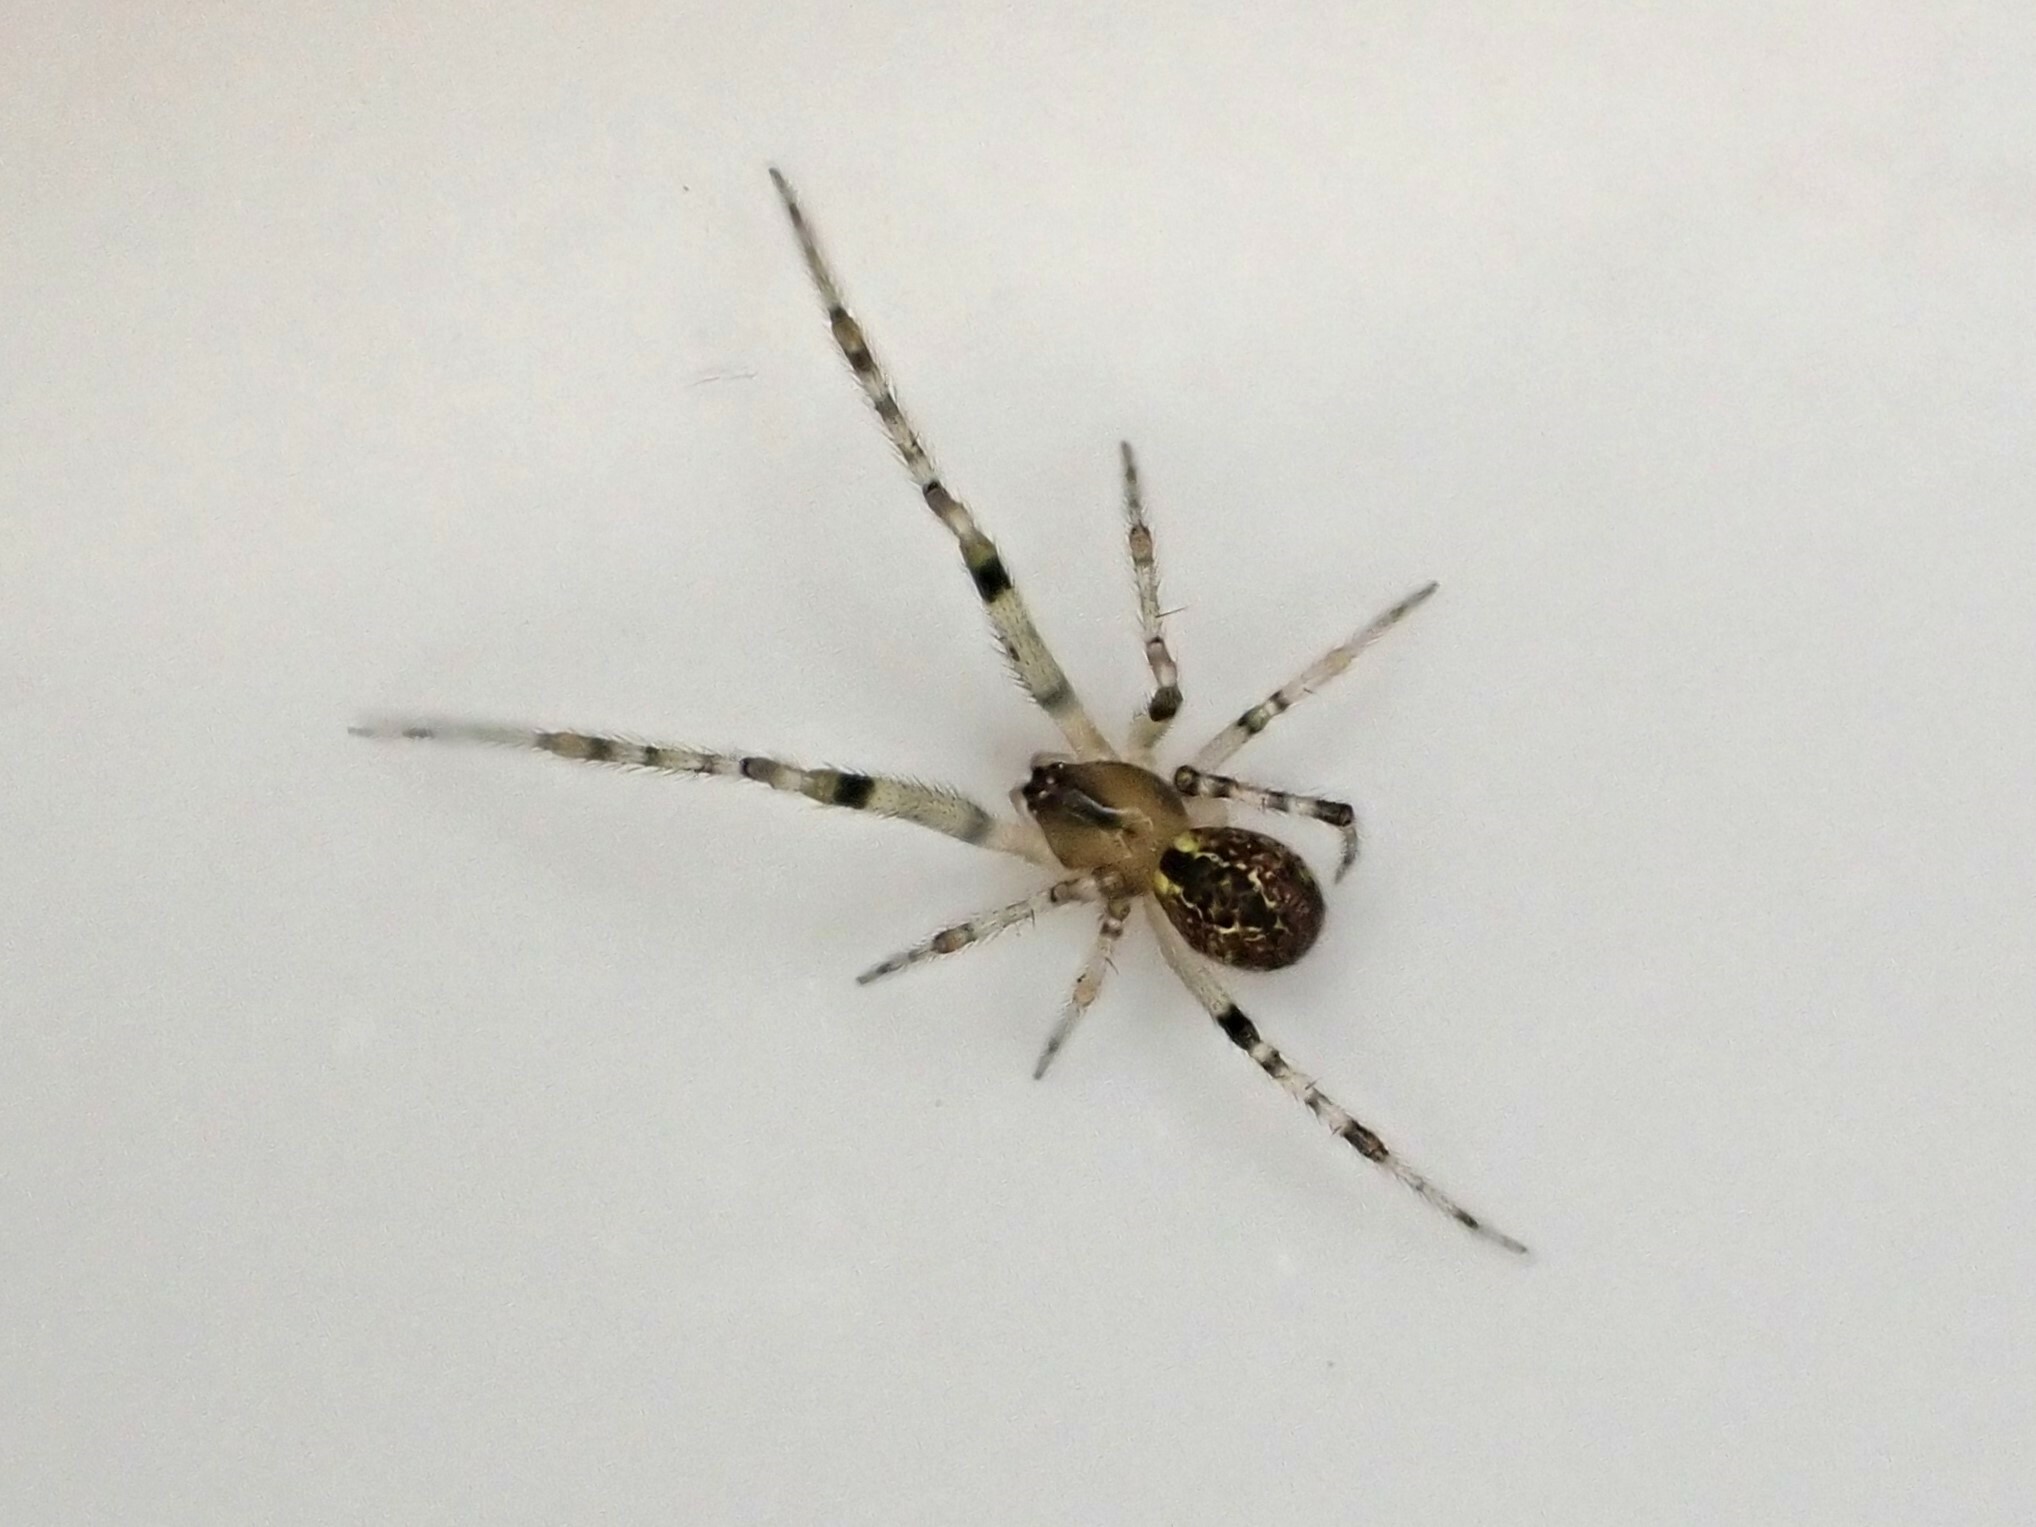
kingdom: Animalia
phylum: Arthropoda
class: Arachnida
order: Araneae
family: Theridiidae
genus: Cryptachaea
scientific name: Cryptachaea veruculata
